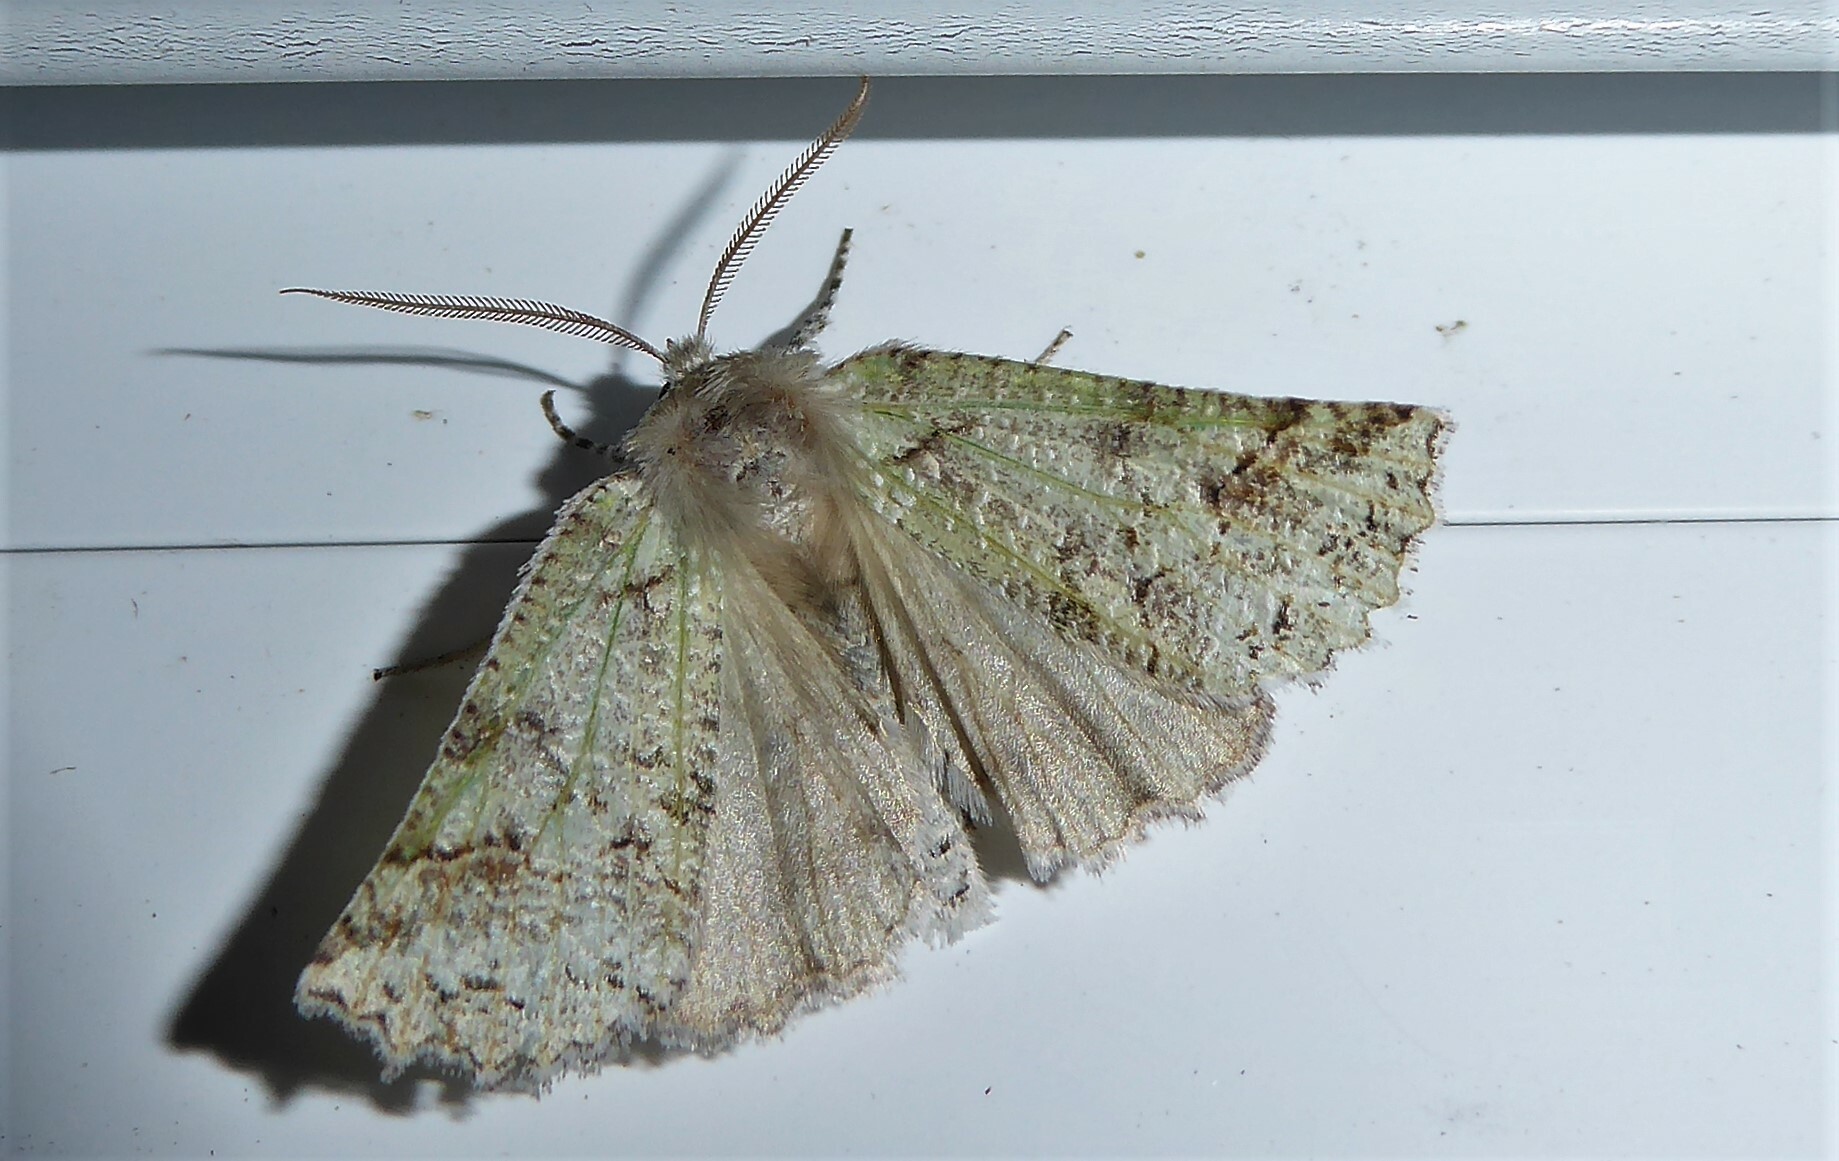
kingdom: Animalia
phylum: Arthropoda
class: Insecta
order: Lepidoptera
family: Geometridae
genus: Declana
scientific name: Declana floccosa
